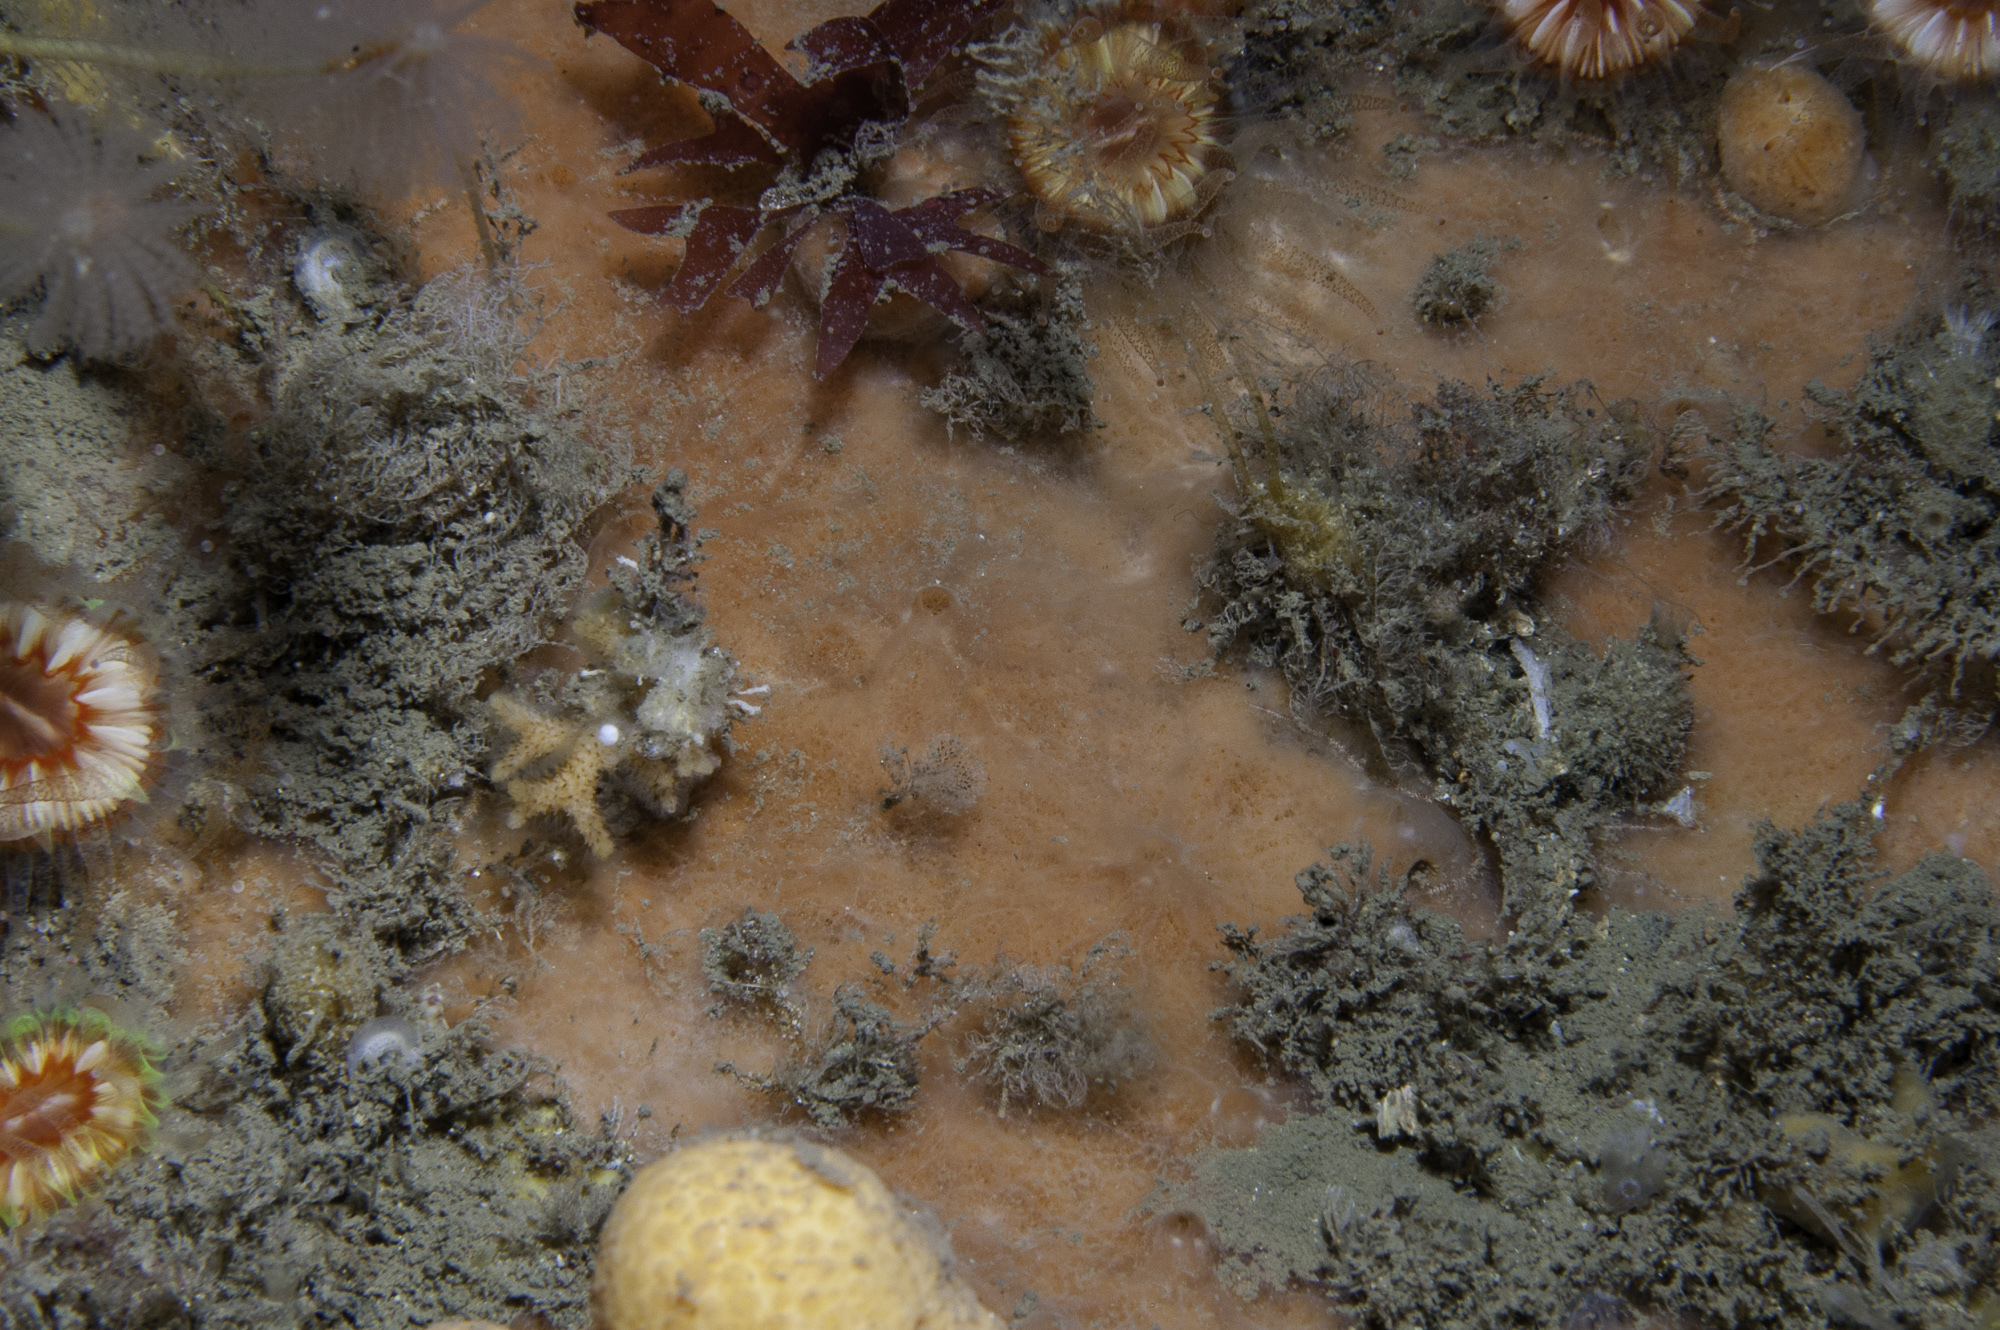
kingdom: Animalia
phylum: Porifera
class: Demospongiae
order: Poecilosclerida
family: Microcionidae
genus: Clathria
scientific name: Clathria strepsitoxa
